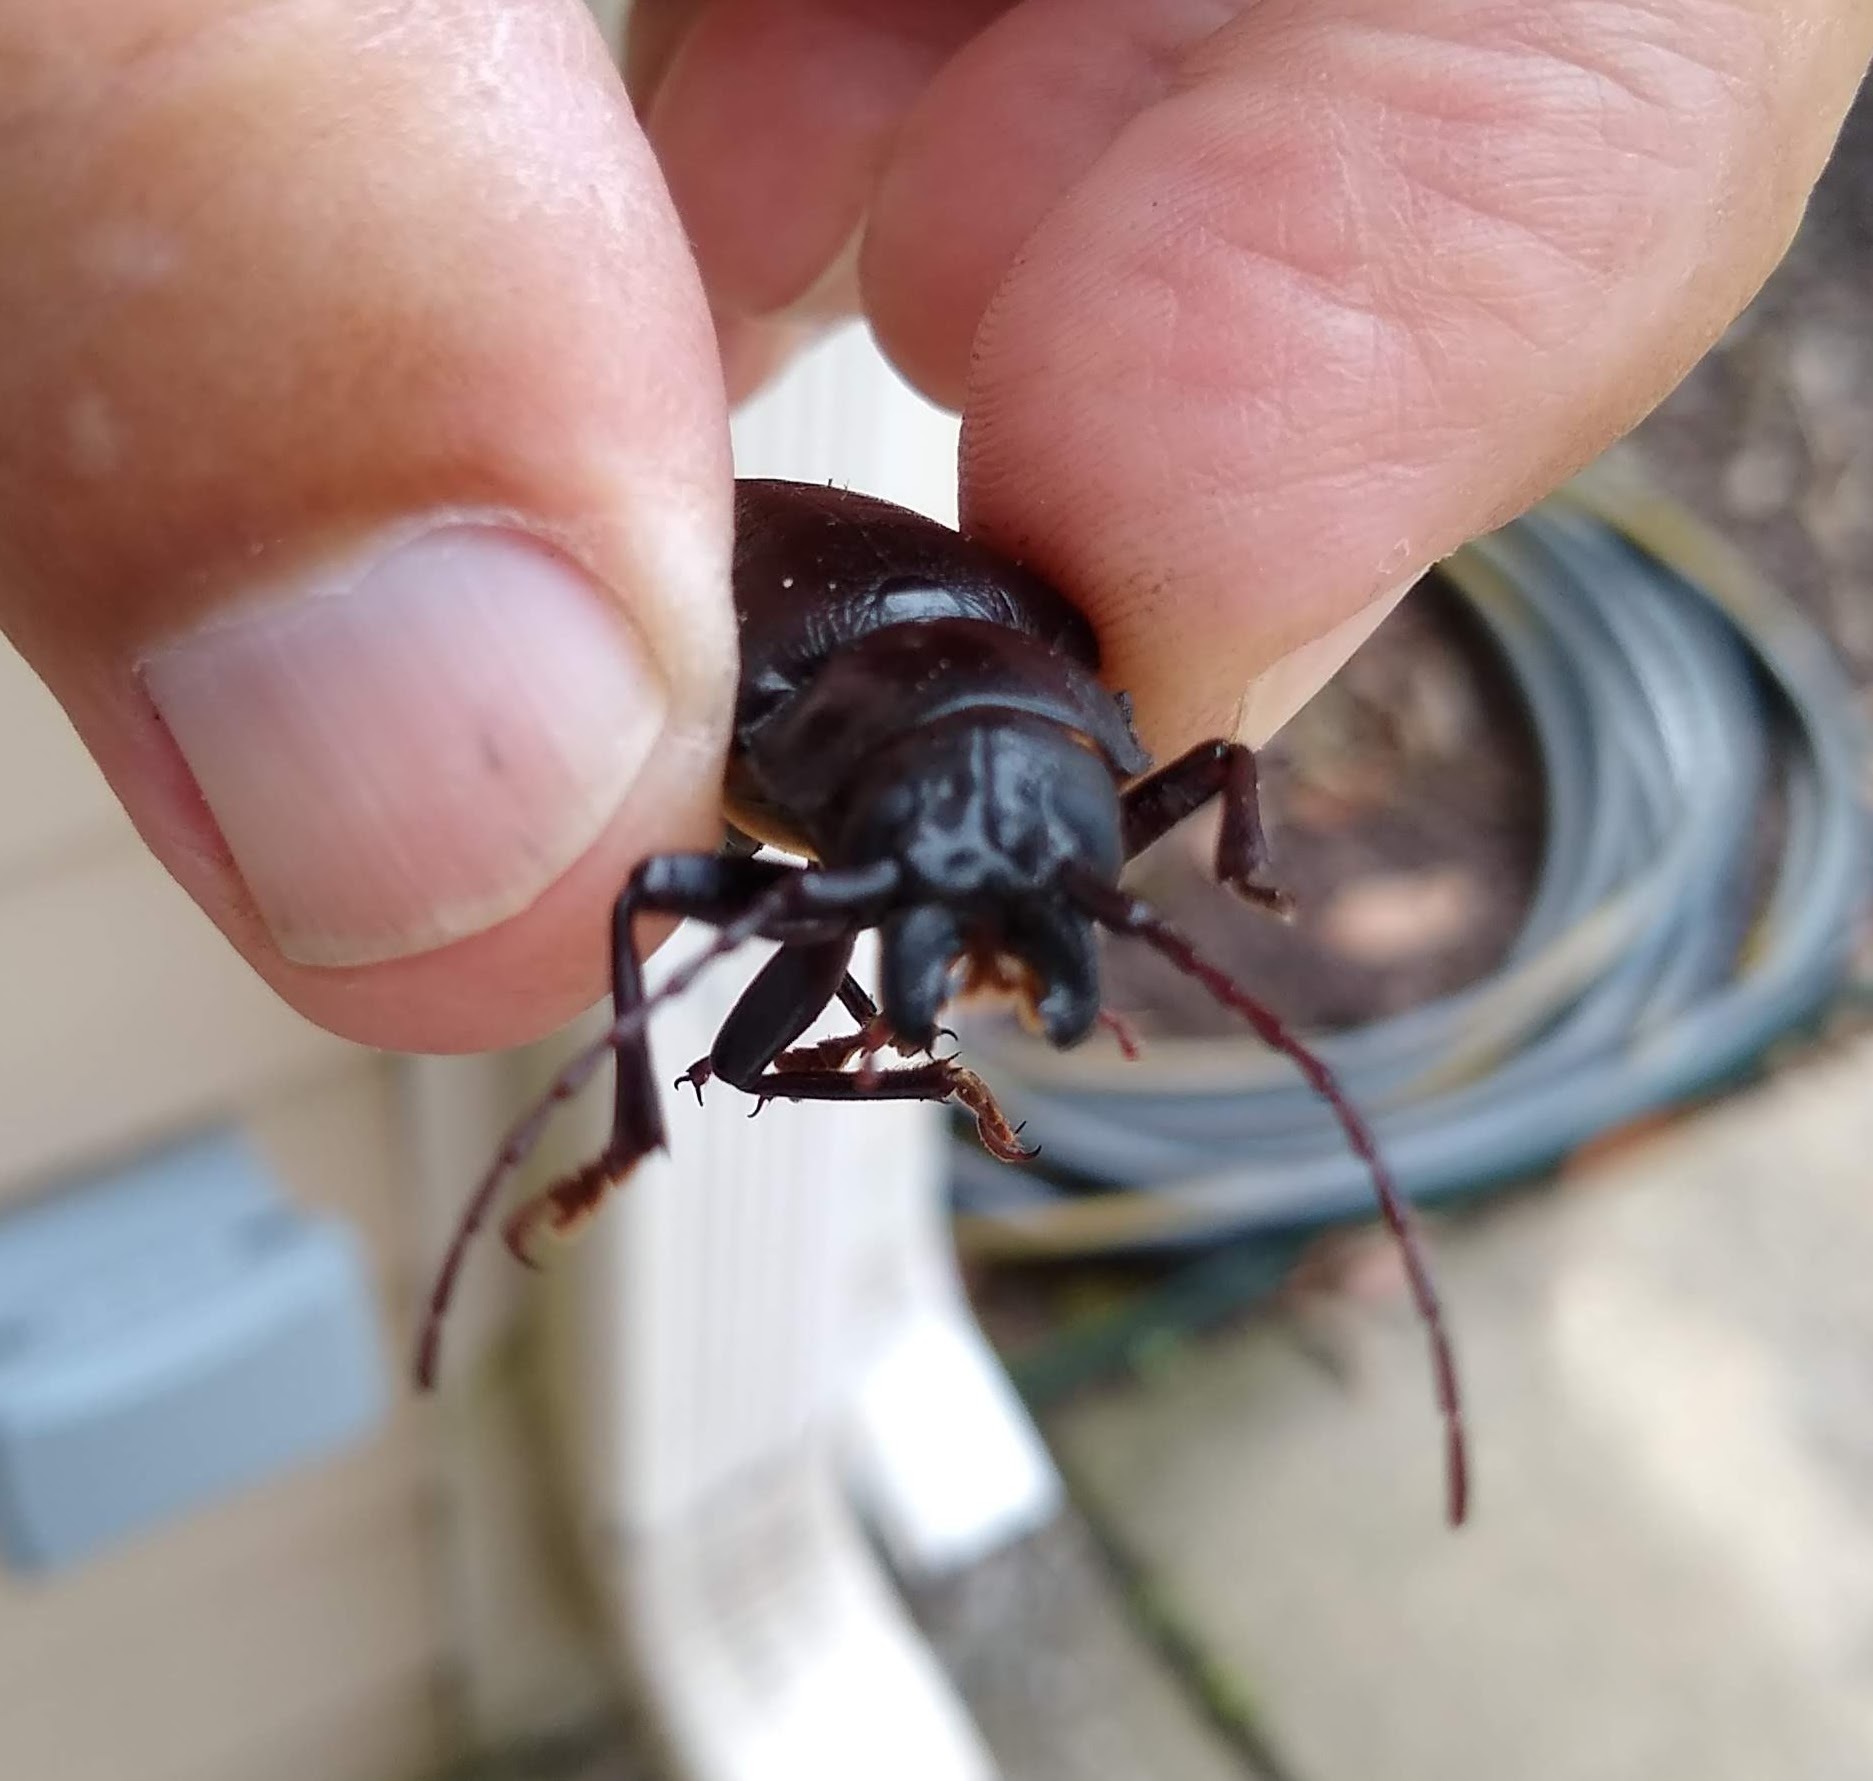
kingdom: Animalia
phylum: Arthropoda
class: Insecta
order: Coleoptera
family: Cerambycidae
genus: Archodontes
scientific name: Archodontes melanopus
